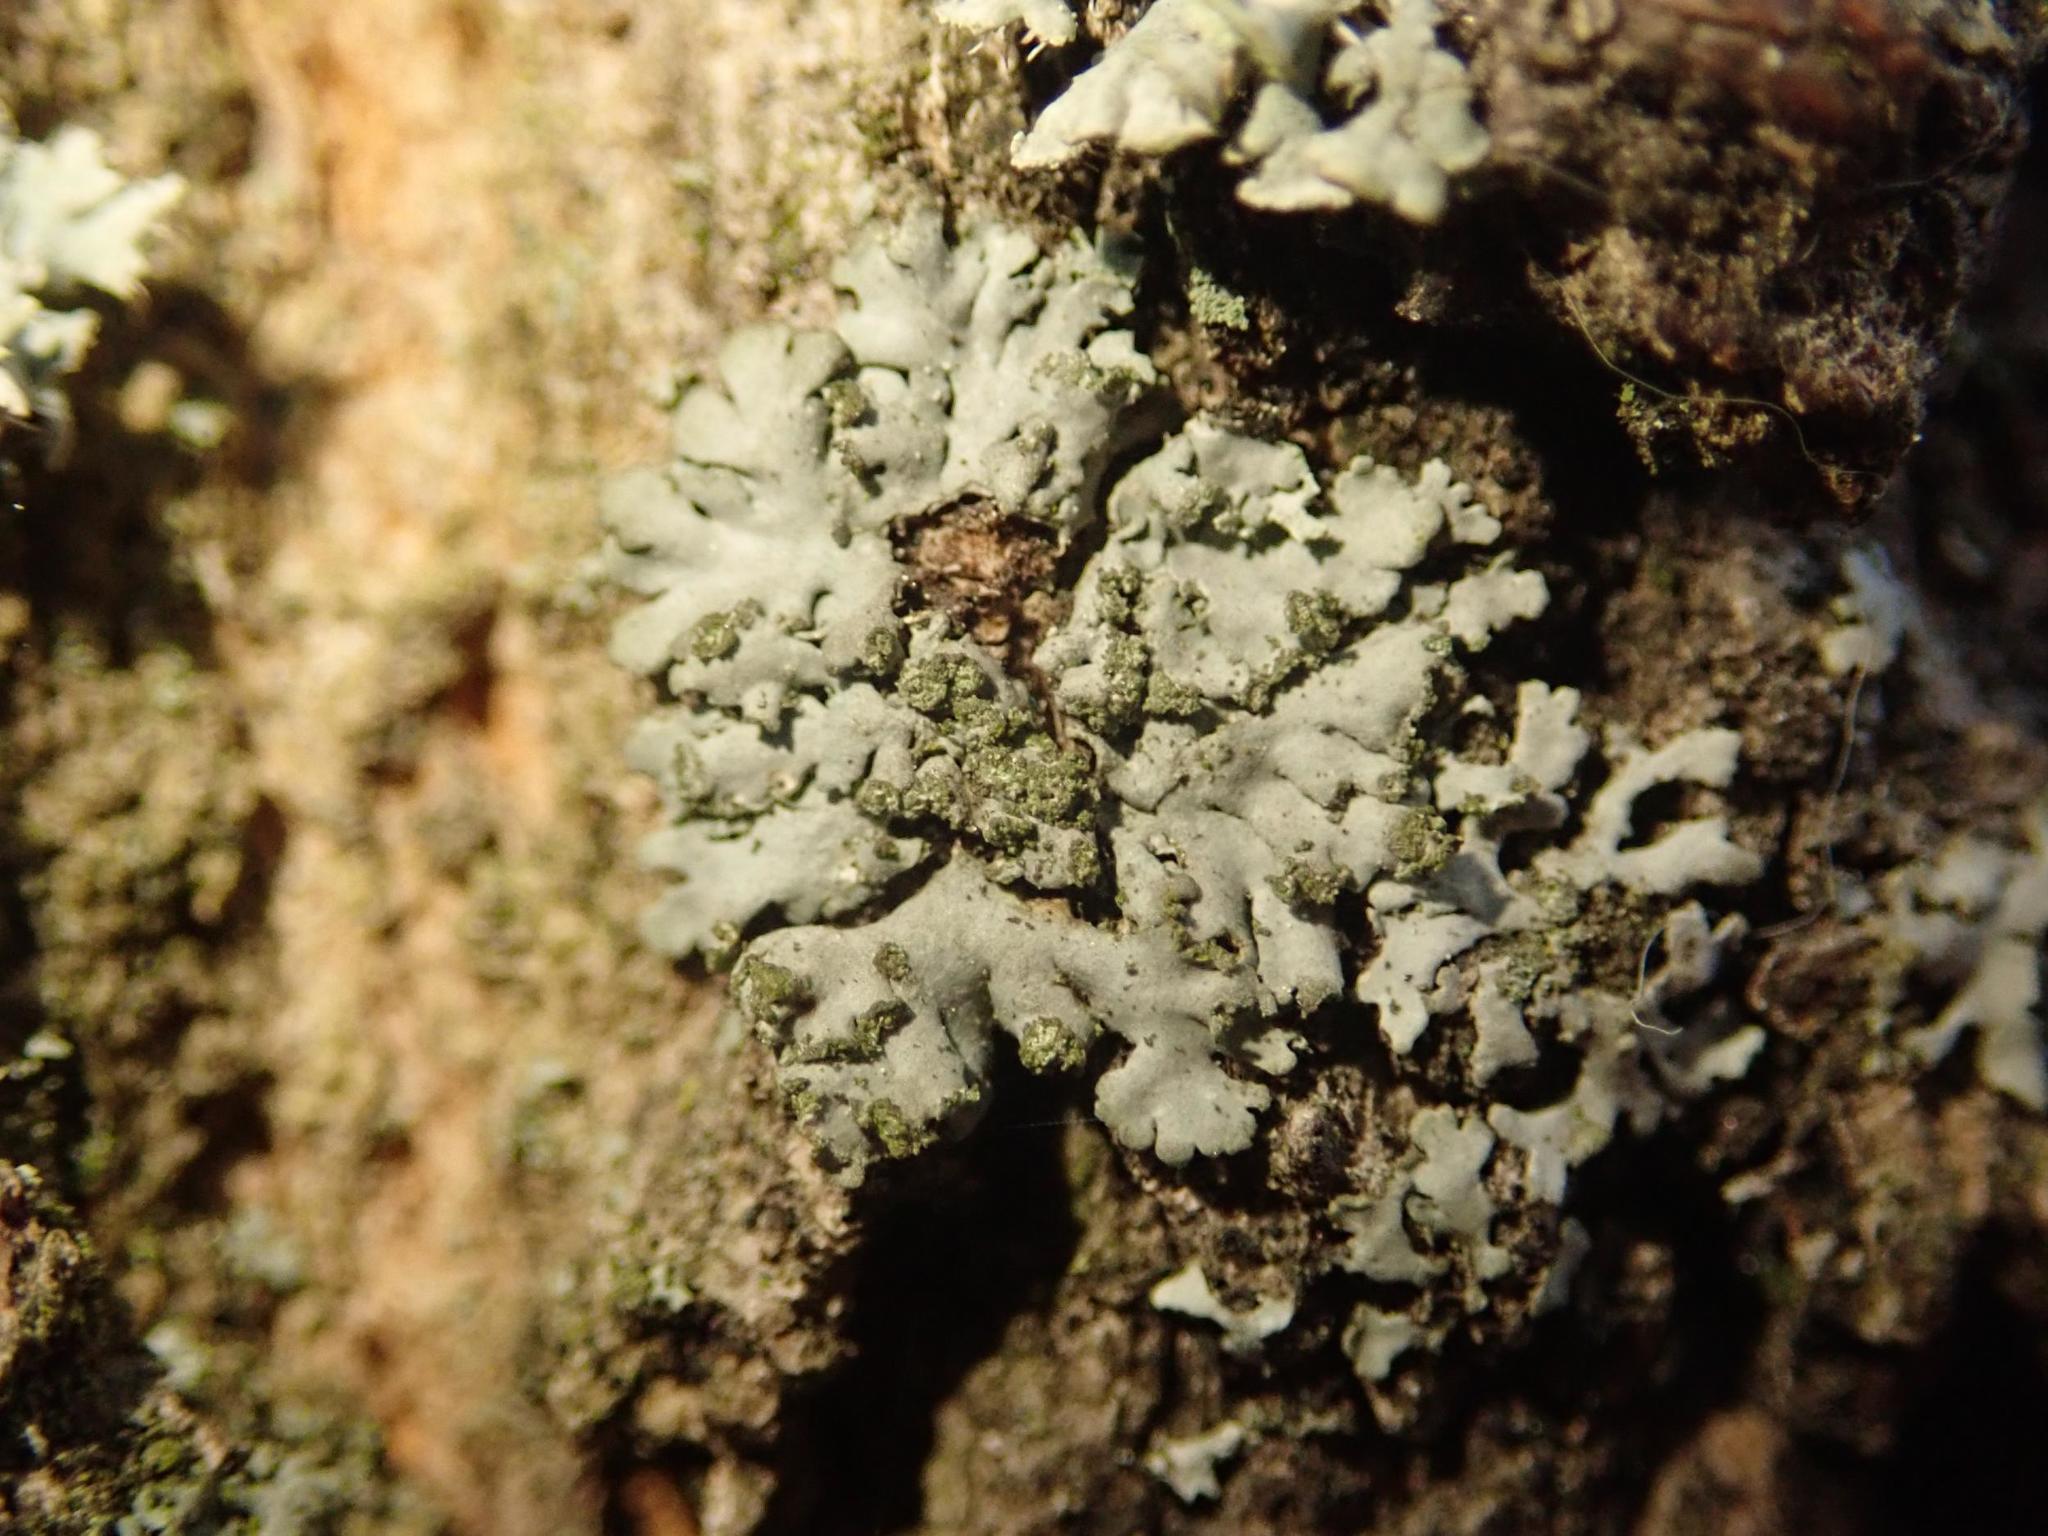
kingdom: Fungi
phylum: Ascomycota
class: Lecanoromycetes
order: Caliciales
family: Physciaceae
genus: Phaeophyscia
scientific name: Phaeophyscia orbicularis
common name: Mealy shadow lichen
